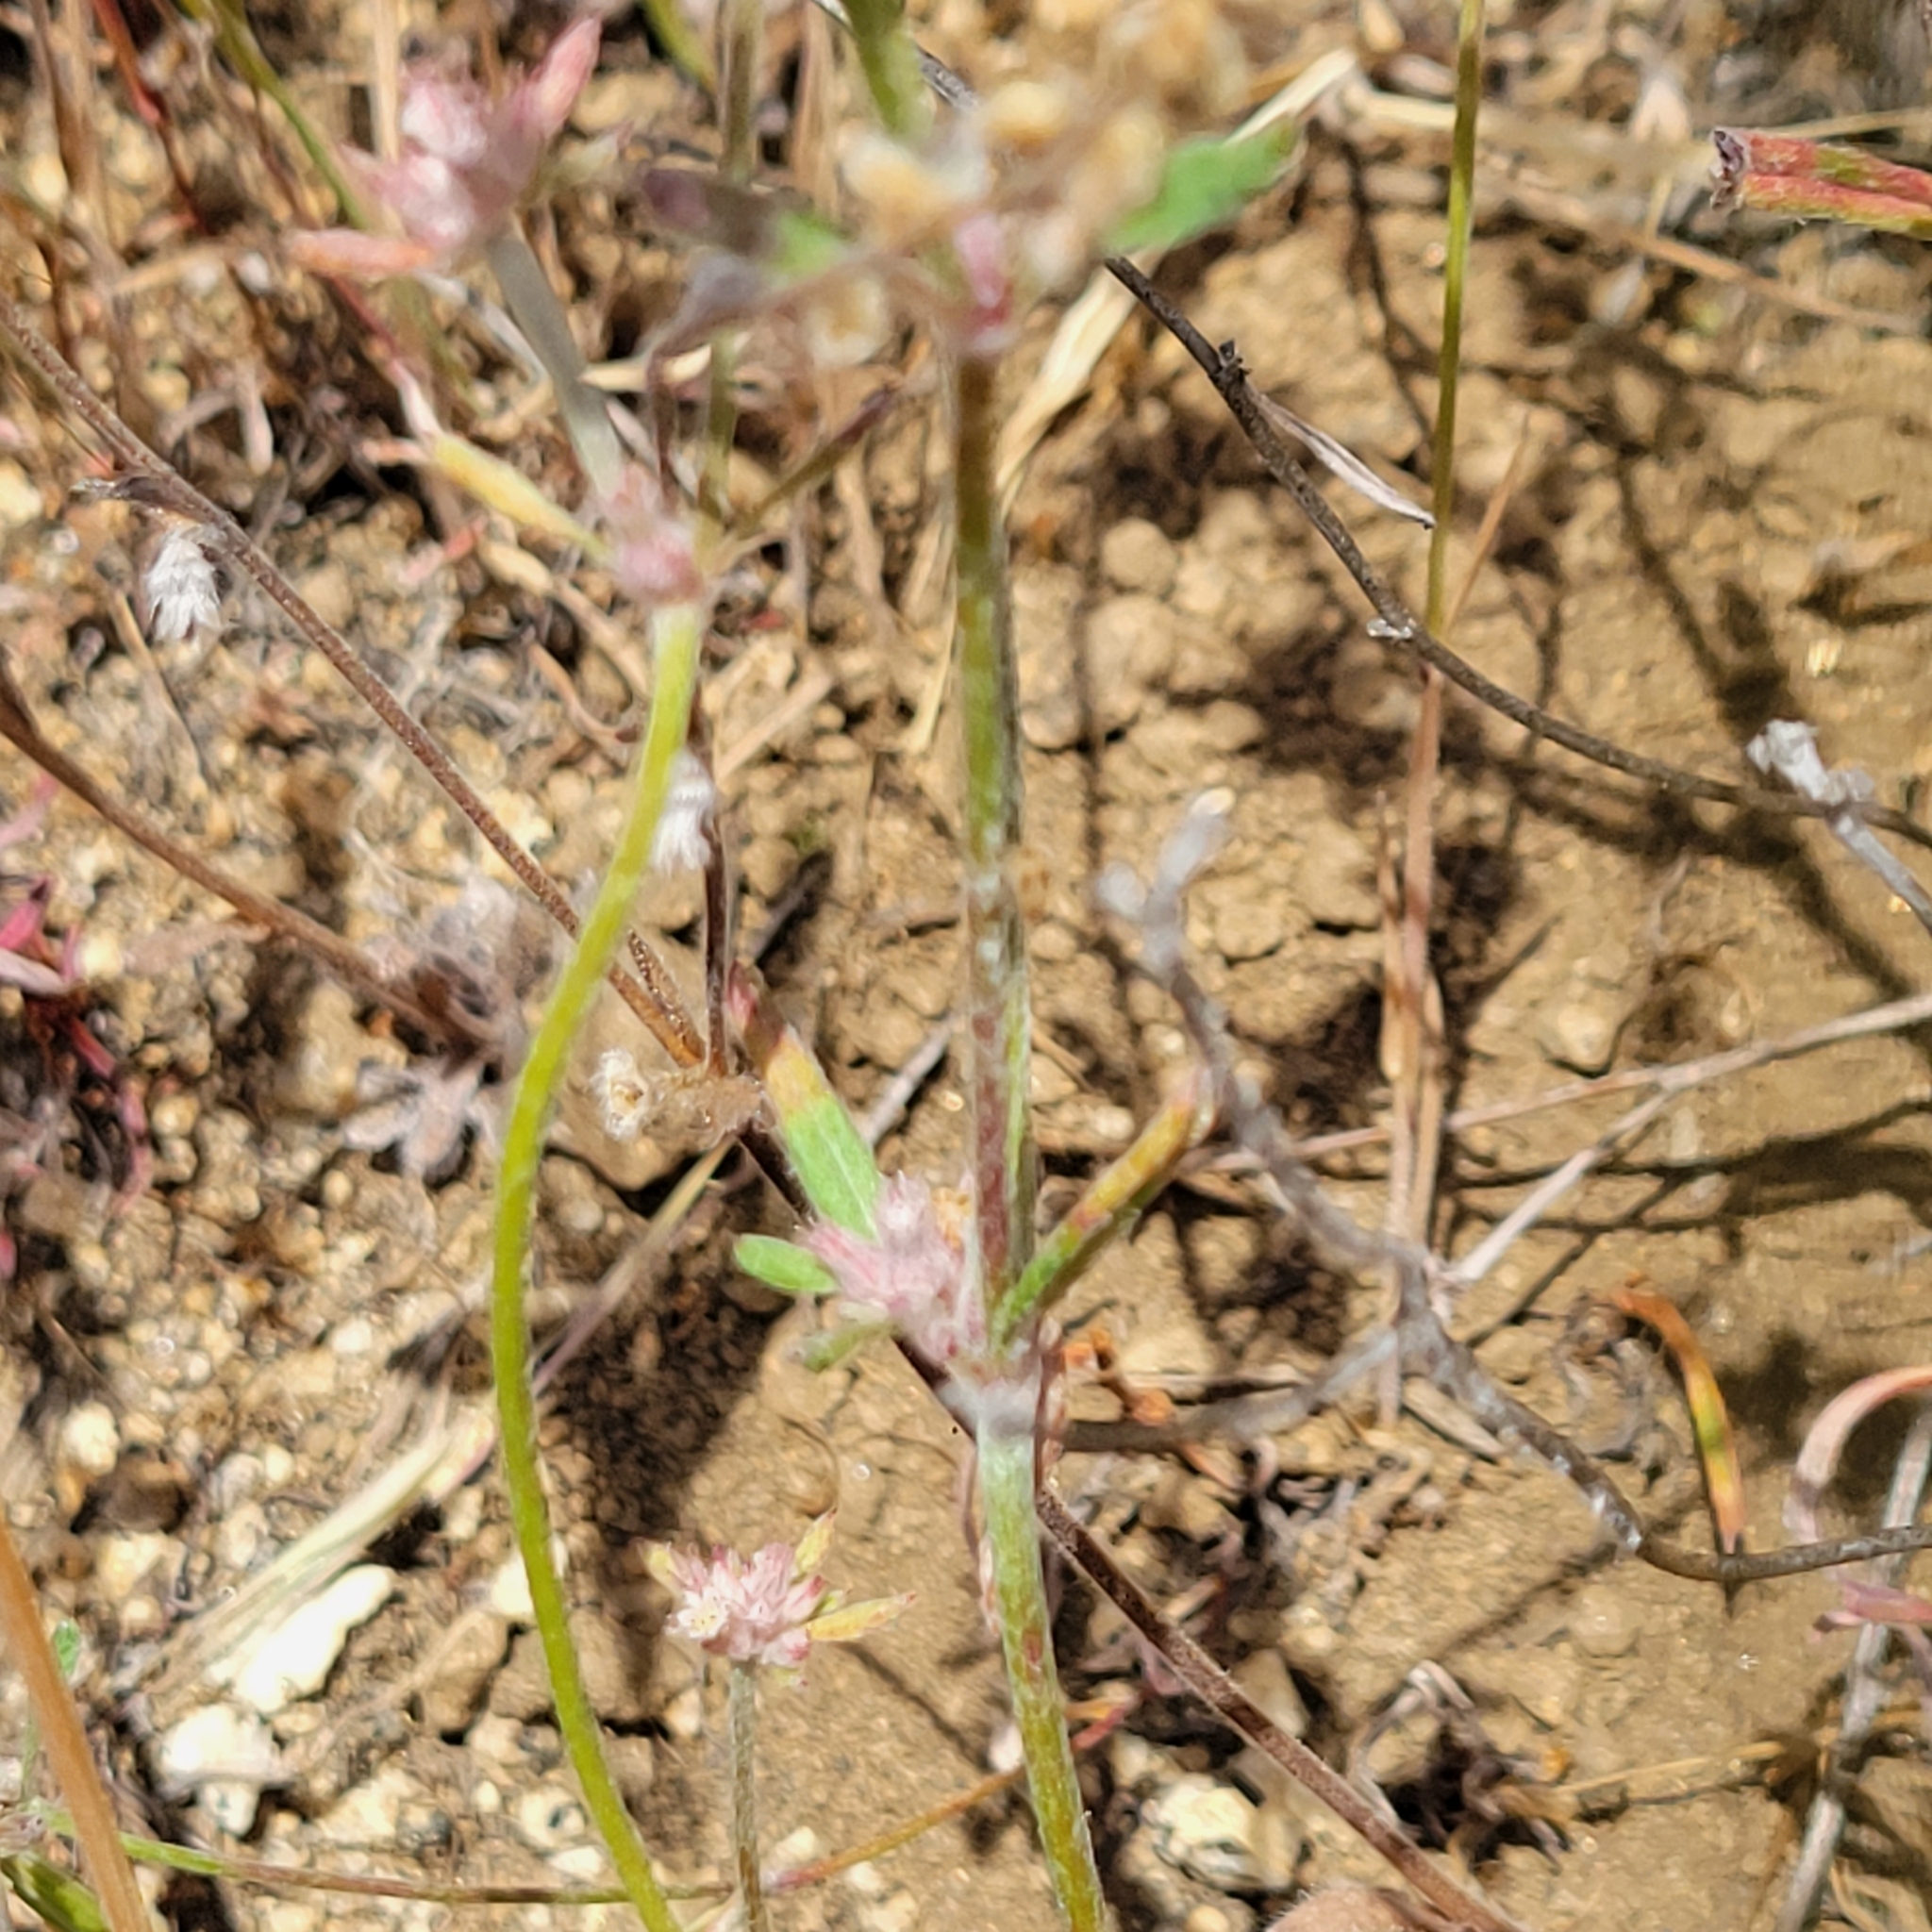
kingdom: Plantae
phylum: Tracheophyta
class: Magnoliopsida
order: Caryophyllales
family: Polygonaceae
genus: Chorizanthe
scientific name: Chorizanthe membranacea
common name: Pink spineflower
